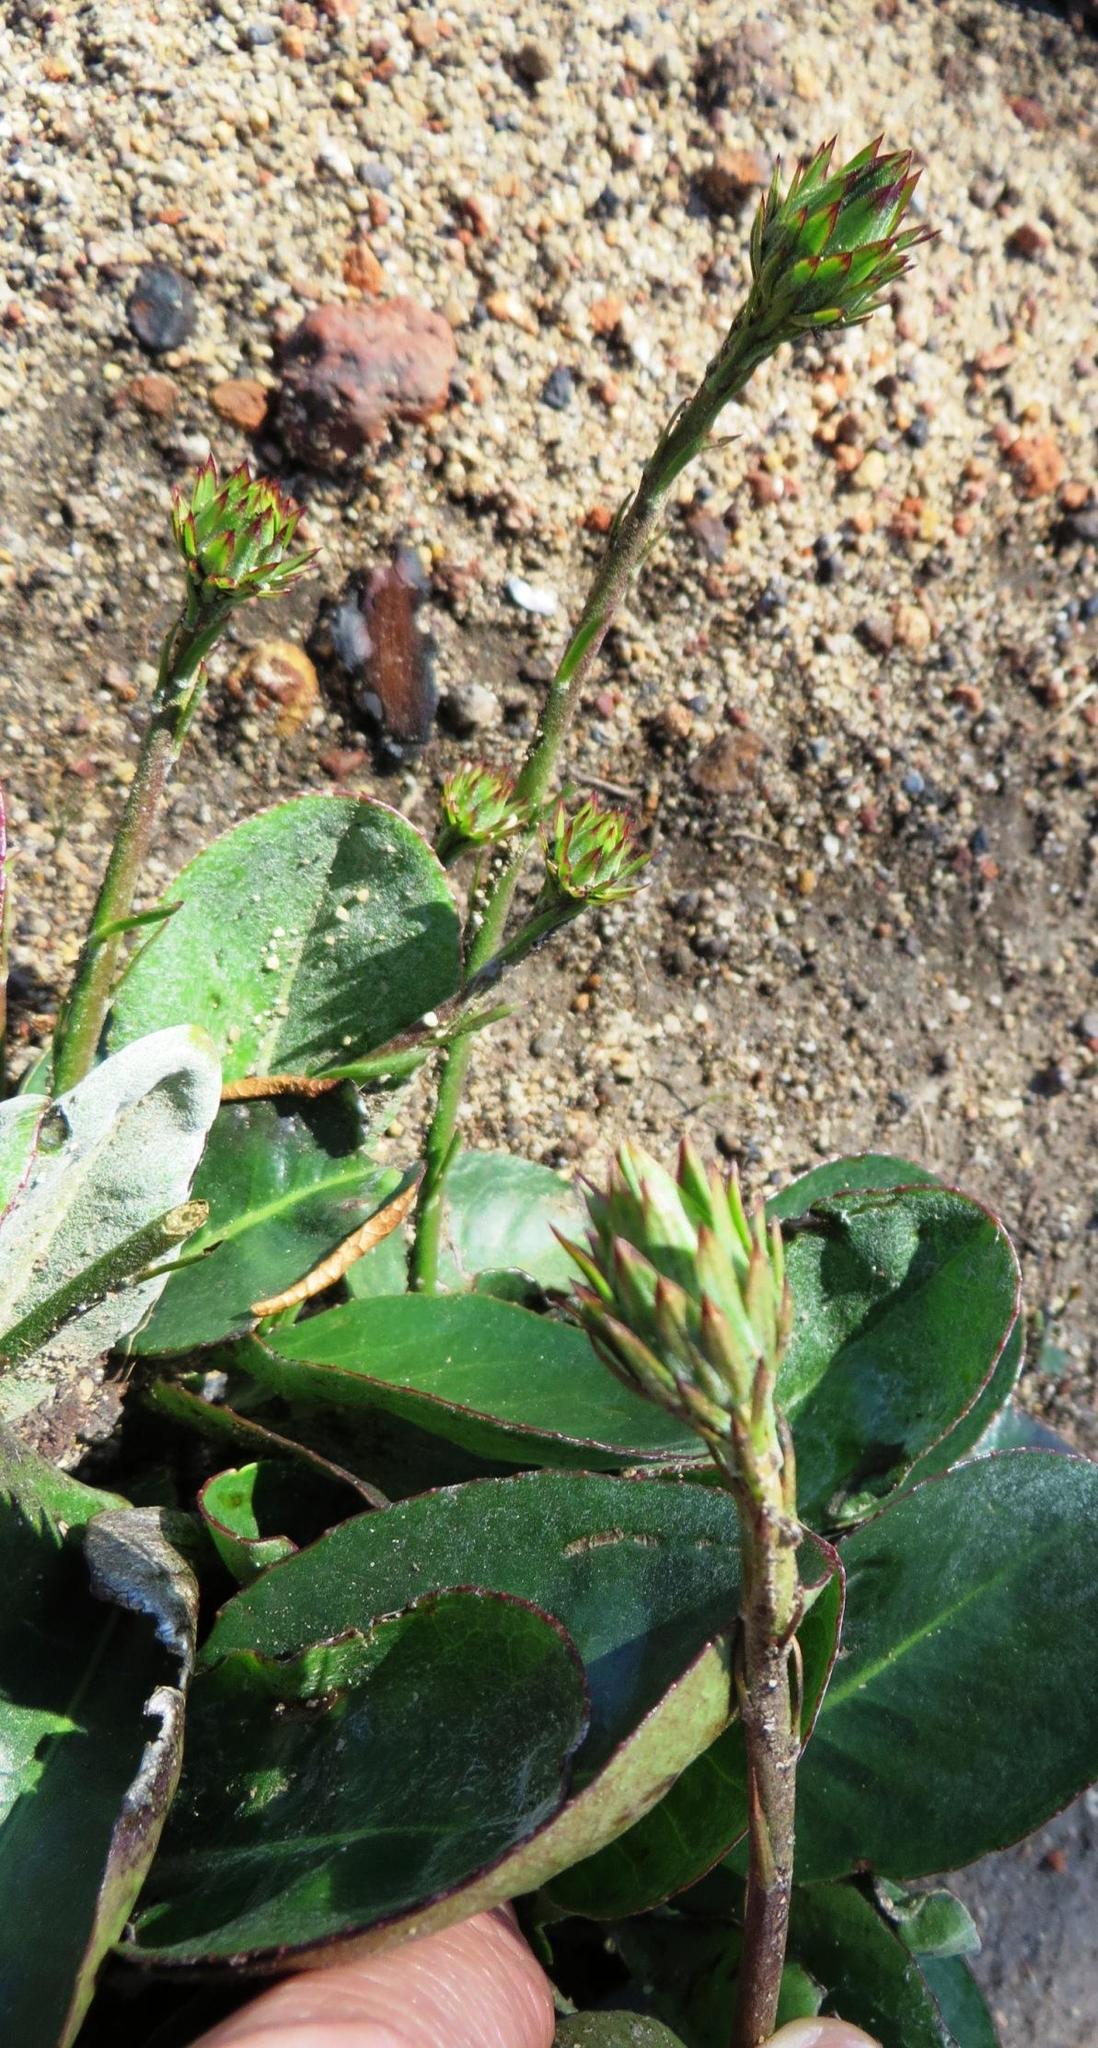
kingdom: Plantae
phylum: Tracheophyta
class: Magnoliopsida
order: Asterales
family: Asteraceae
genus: Gerbera
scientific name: Gerbera crocea
